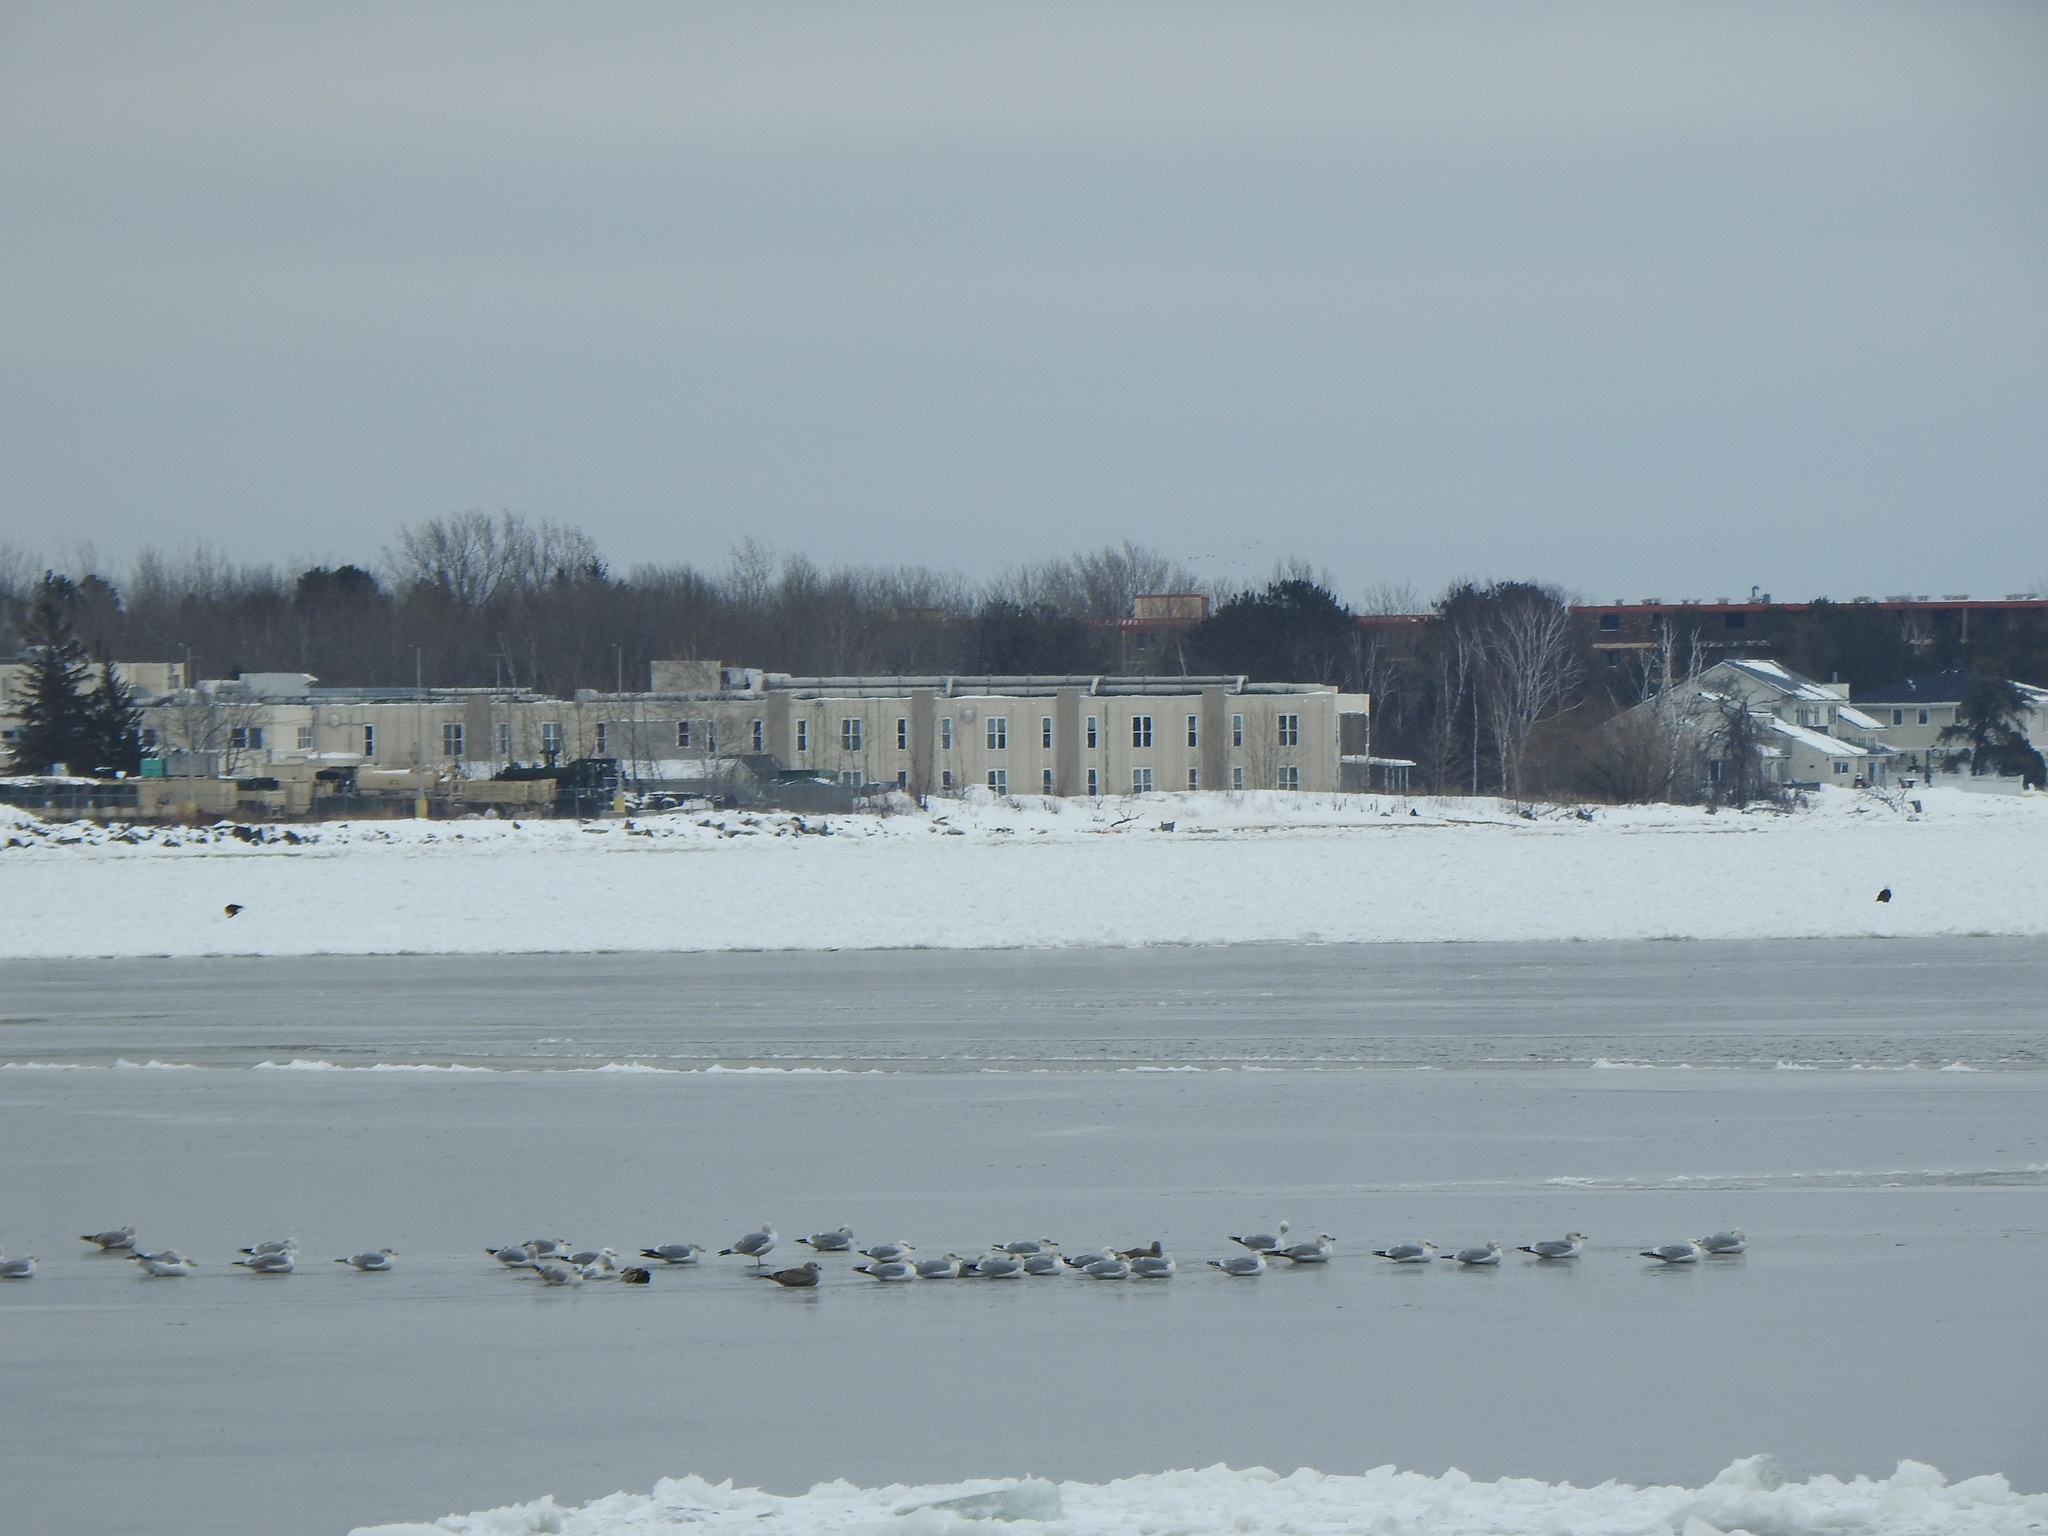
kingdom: Animalia
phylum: Chordata
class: Aves
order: Accipitriformes
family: Accipitridae
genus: Haliaeetus
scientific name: Haliaeetus leucocephalus
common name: Bald eagle
